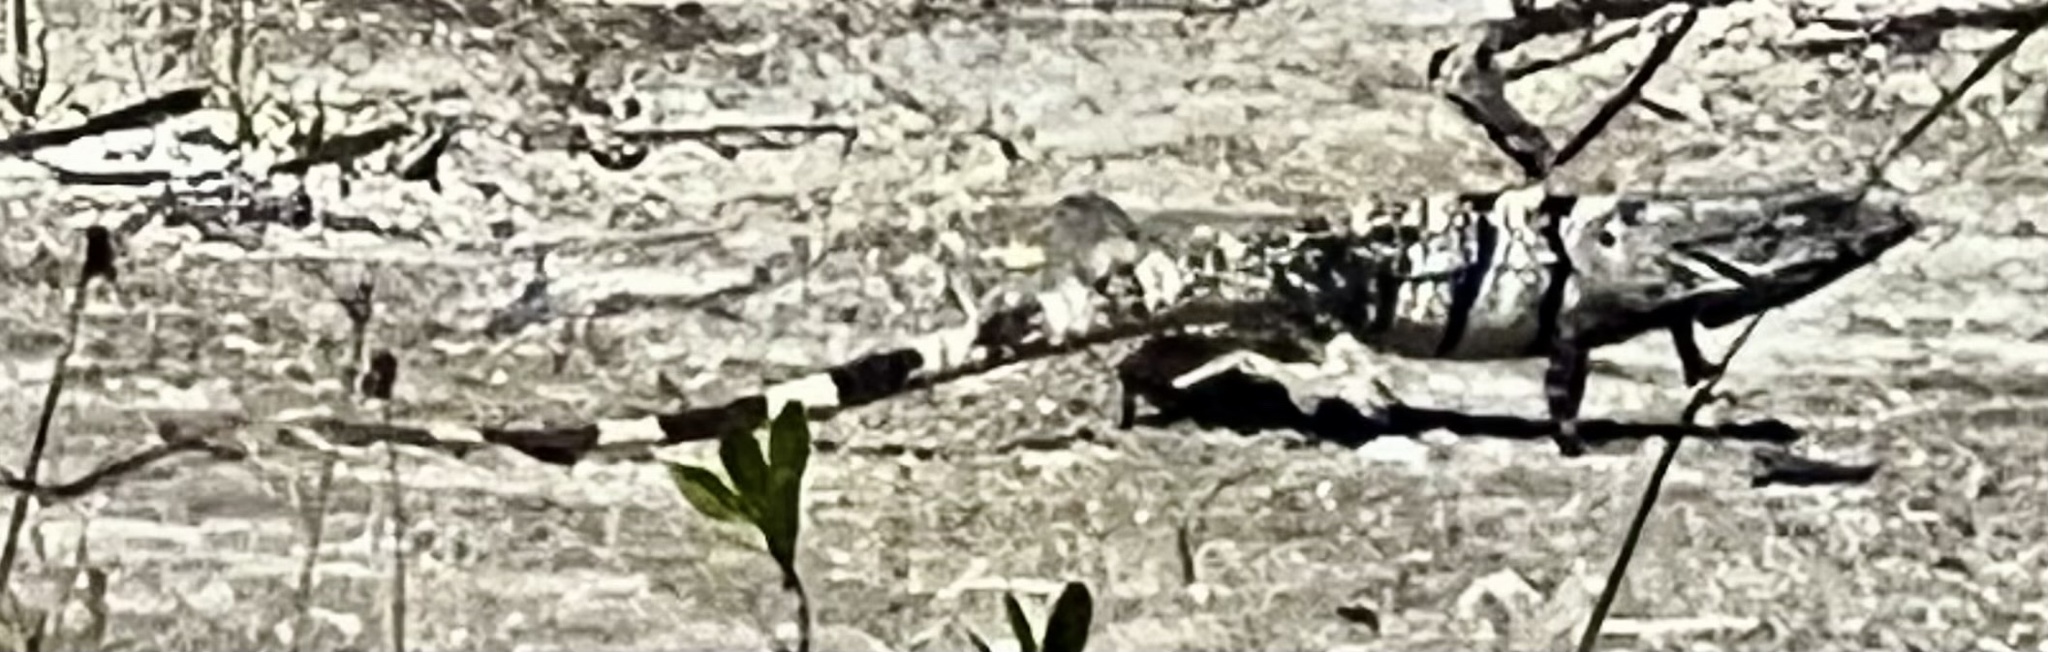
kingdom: Animalia
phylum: Chordata
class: Squamata
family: Iguanidae
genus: Ctenosaura
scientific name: Ctenosaura similis
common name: Black spiny-tailed iguana
